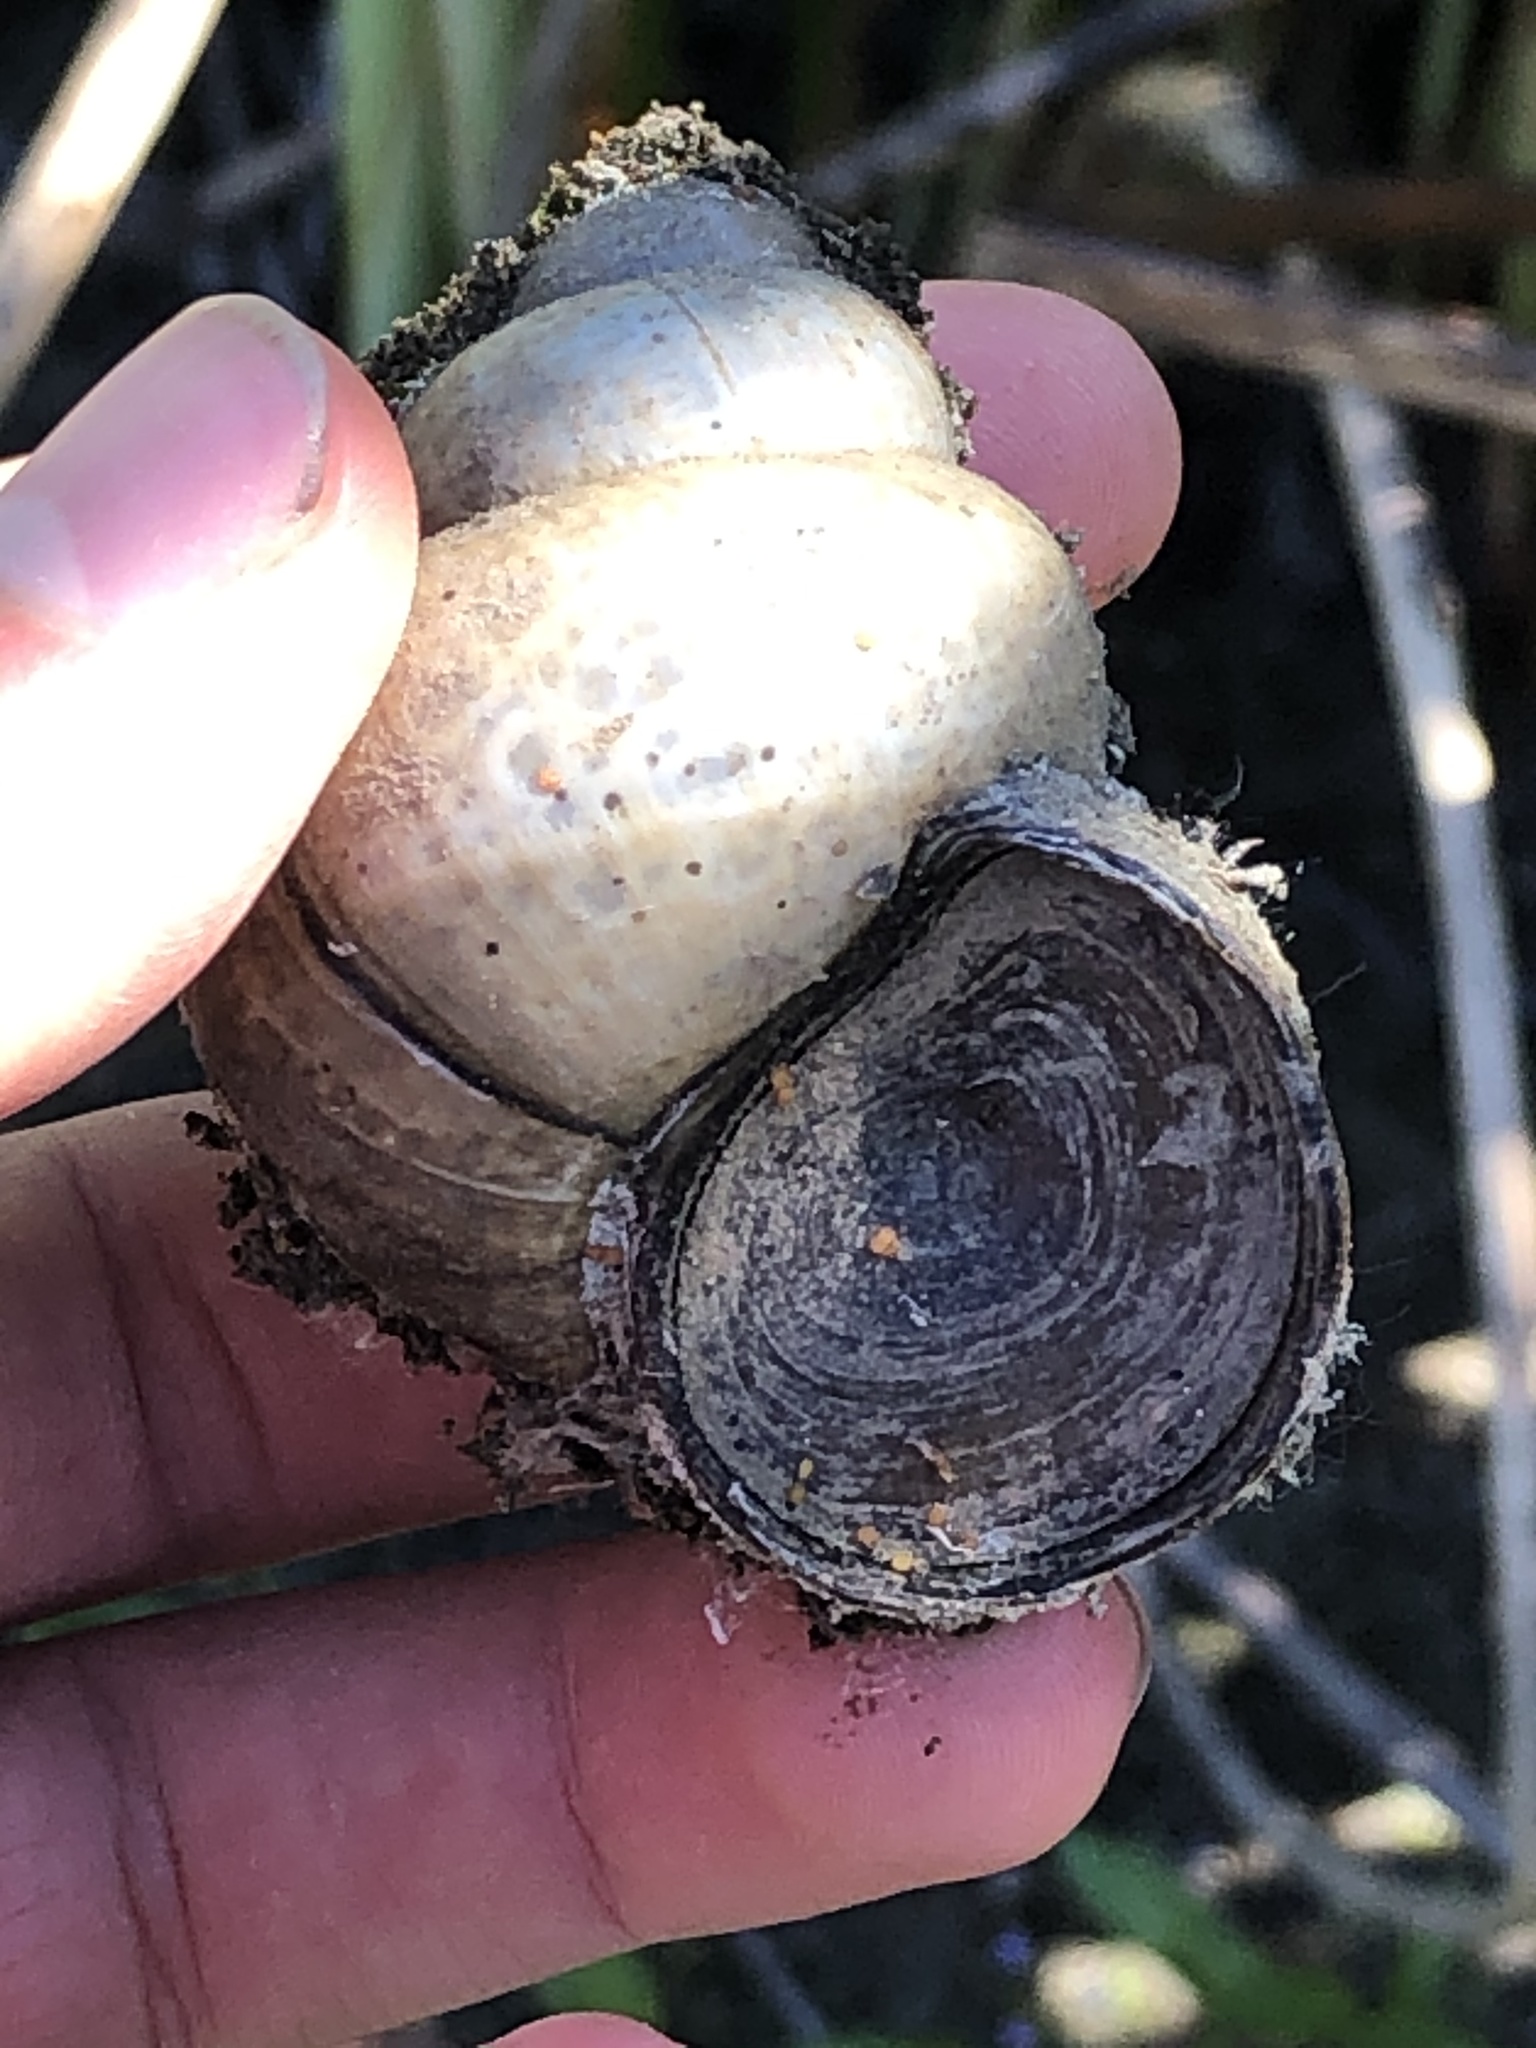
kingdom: Animalia
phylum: Mollusca
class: Gastropoda
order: Architaenioglossa
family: Viviparidae
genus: Cipangopaludina
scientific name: Cipangopaludina chinensis
